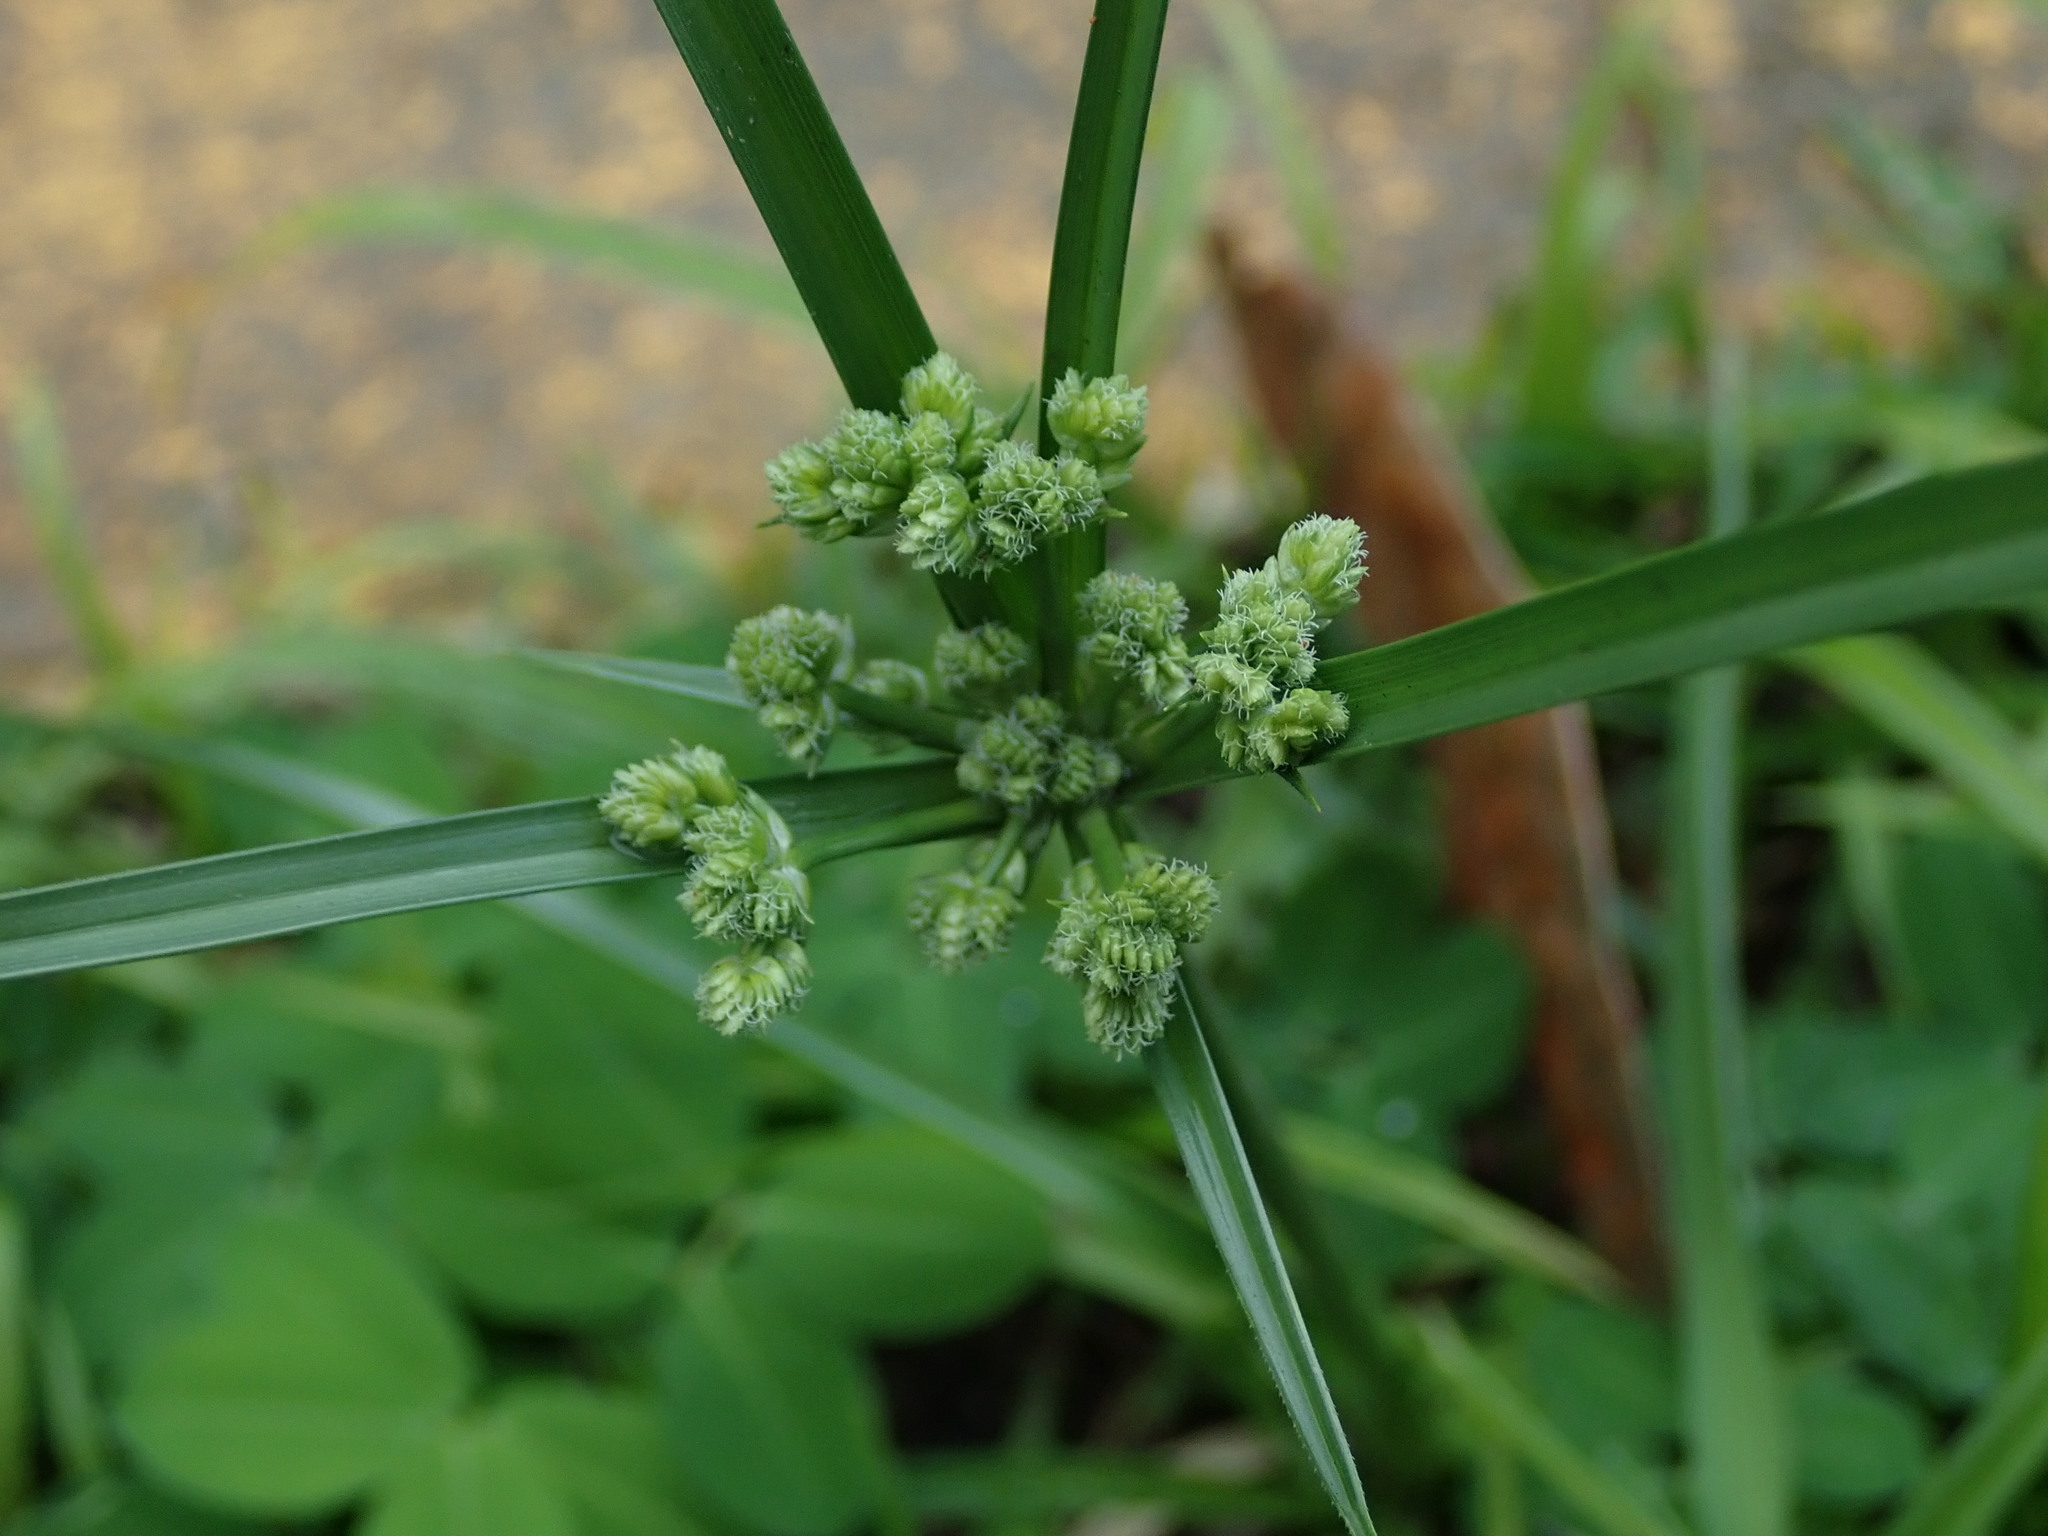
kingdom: Plantae
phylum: Tracheophyta
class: Liliopsida
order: Poales
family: Cyperaceae
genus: Cyperus
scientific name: Cyperus surinamensis
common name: Tropical flat sedge
